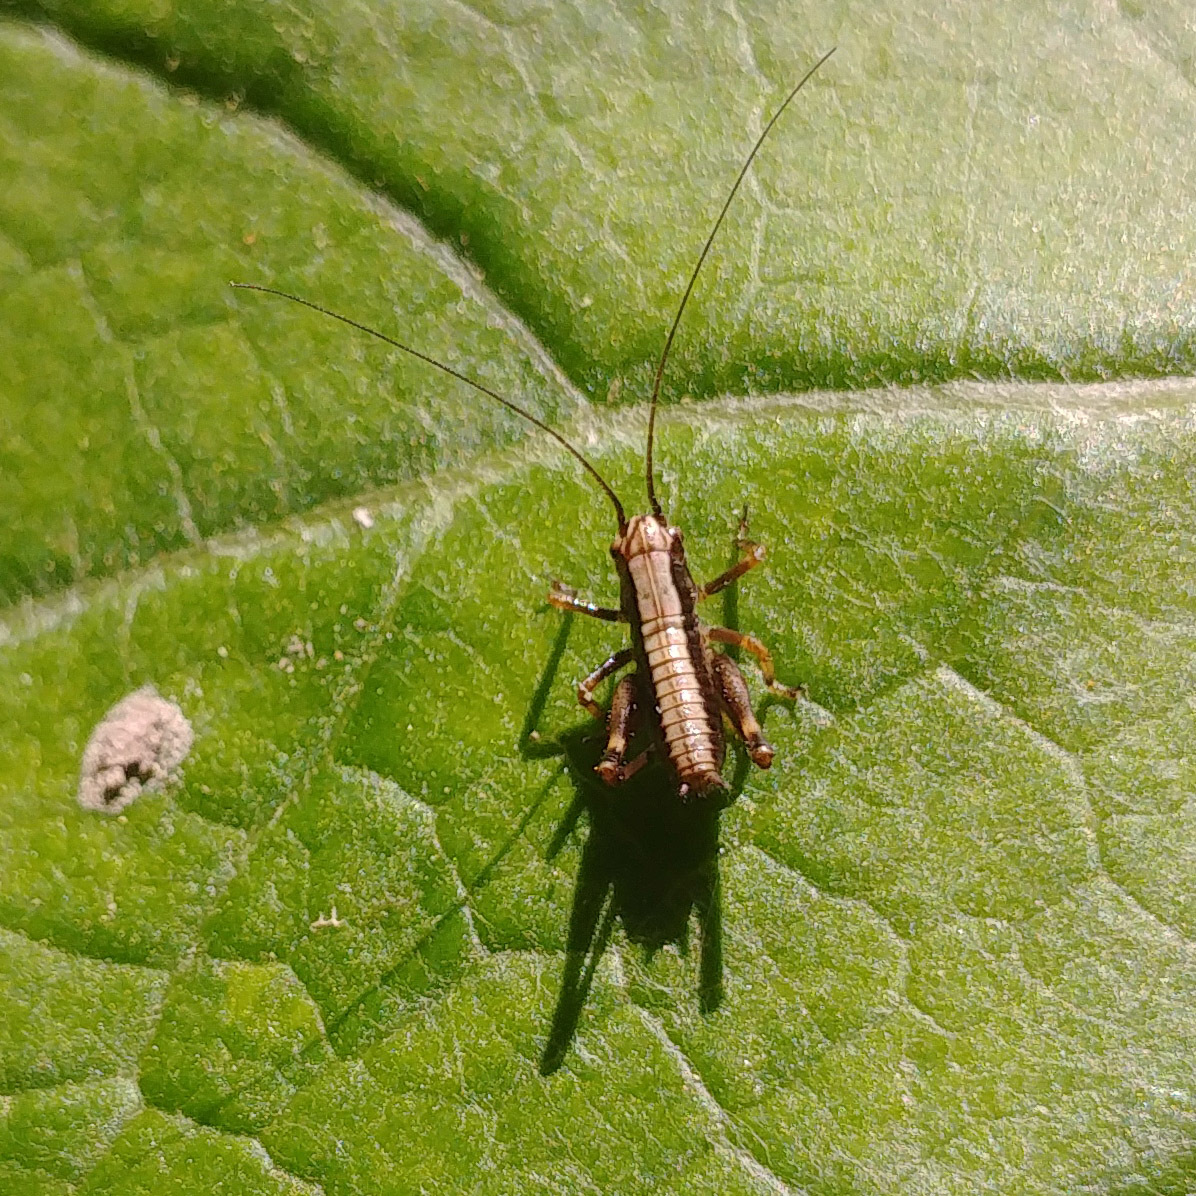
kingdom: Animalia
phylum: Arthropoda
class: Insecta
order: Orthoptera
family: Tettigoniidae
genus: Pholidoptera
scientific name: Pholidoptera griseoaptera
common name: Dark bush-cricket
